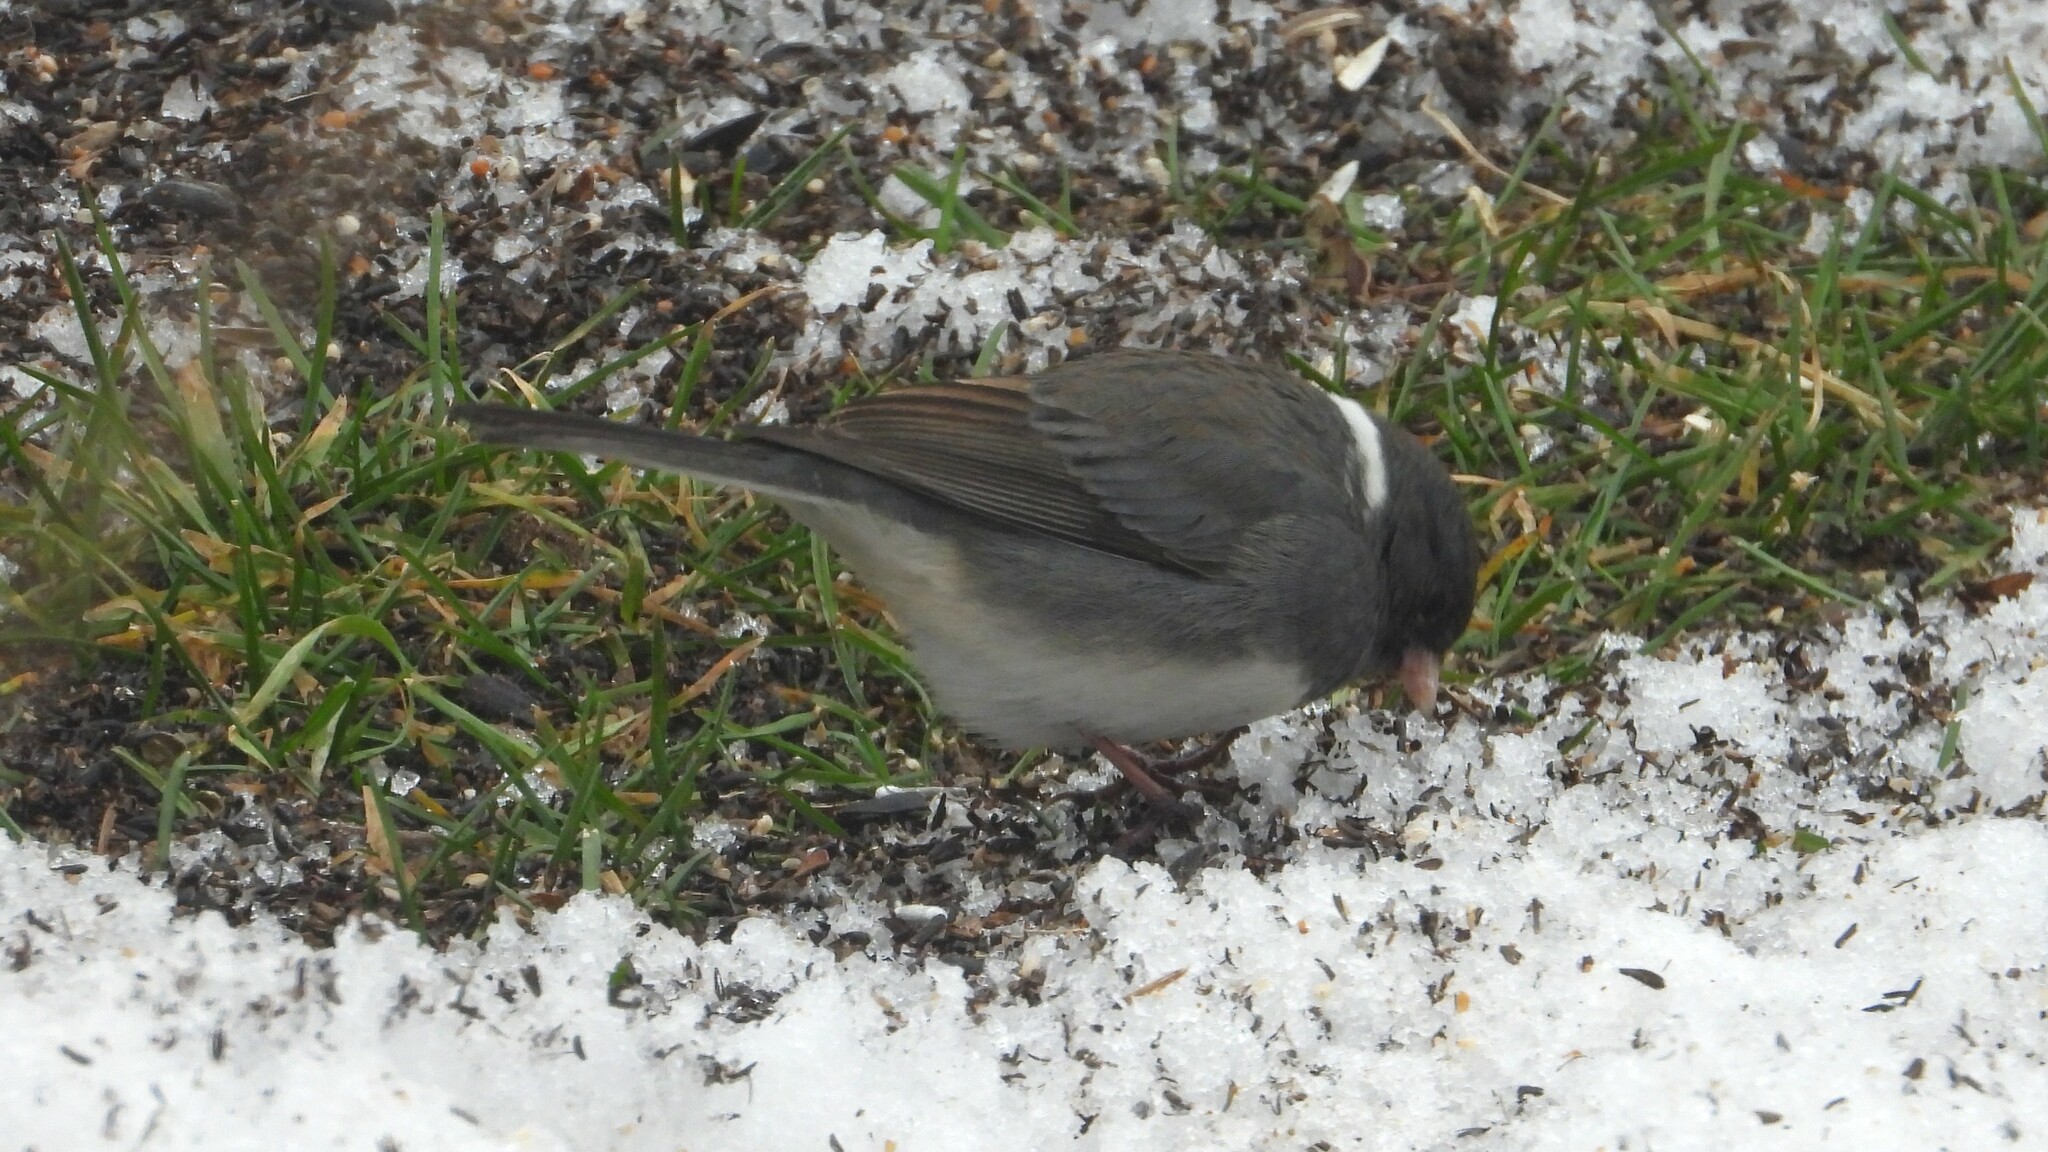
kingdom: Animalia
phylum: Chordata
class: Aves
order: Passeriformes
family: Passerellidae
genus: Junco
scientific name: Junco hyemalis
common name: Dark-eyed junco
